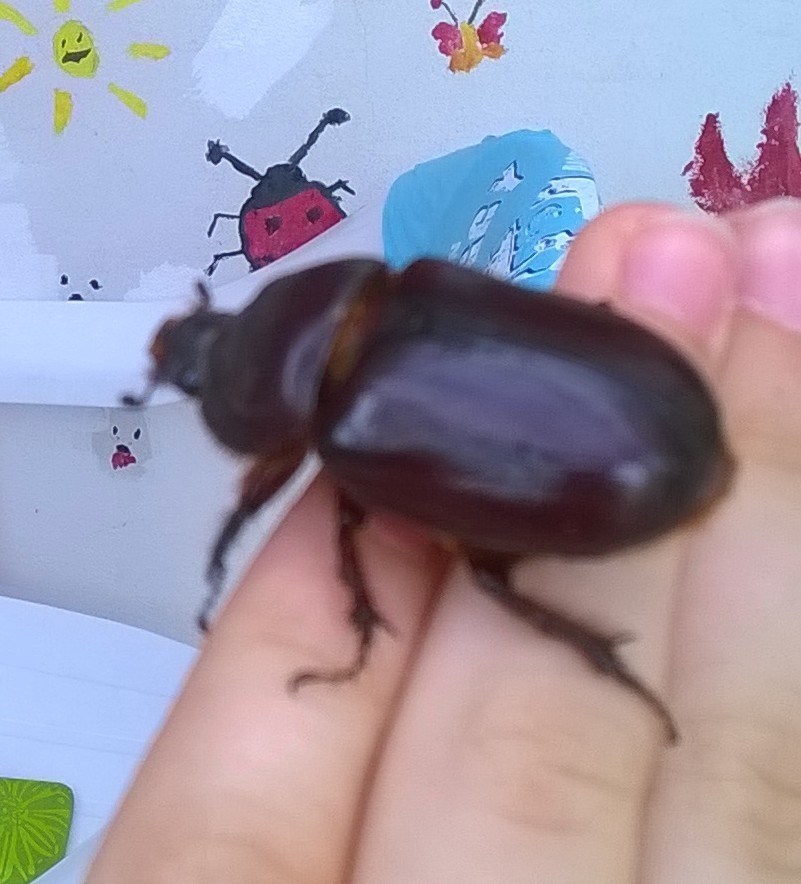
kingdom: Animalia
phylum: Arthropoda
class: Insecta
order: Coleoptera
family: Scarabaeidae
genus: Oryctes
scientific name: Oryctes nasicornis
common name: European rhinoceros beetle
